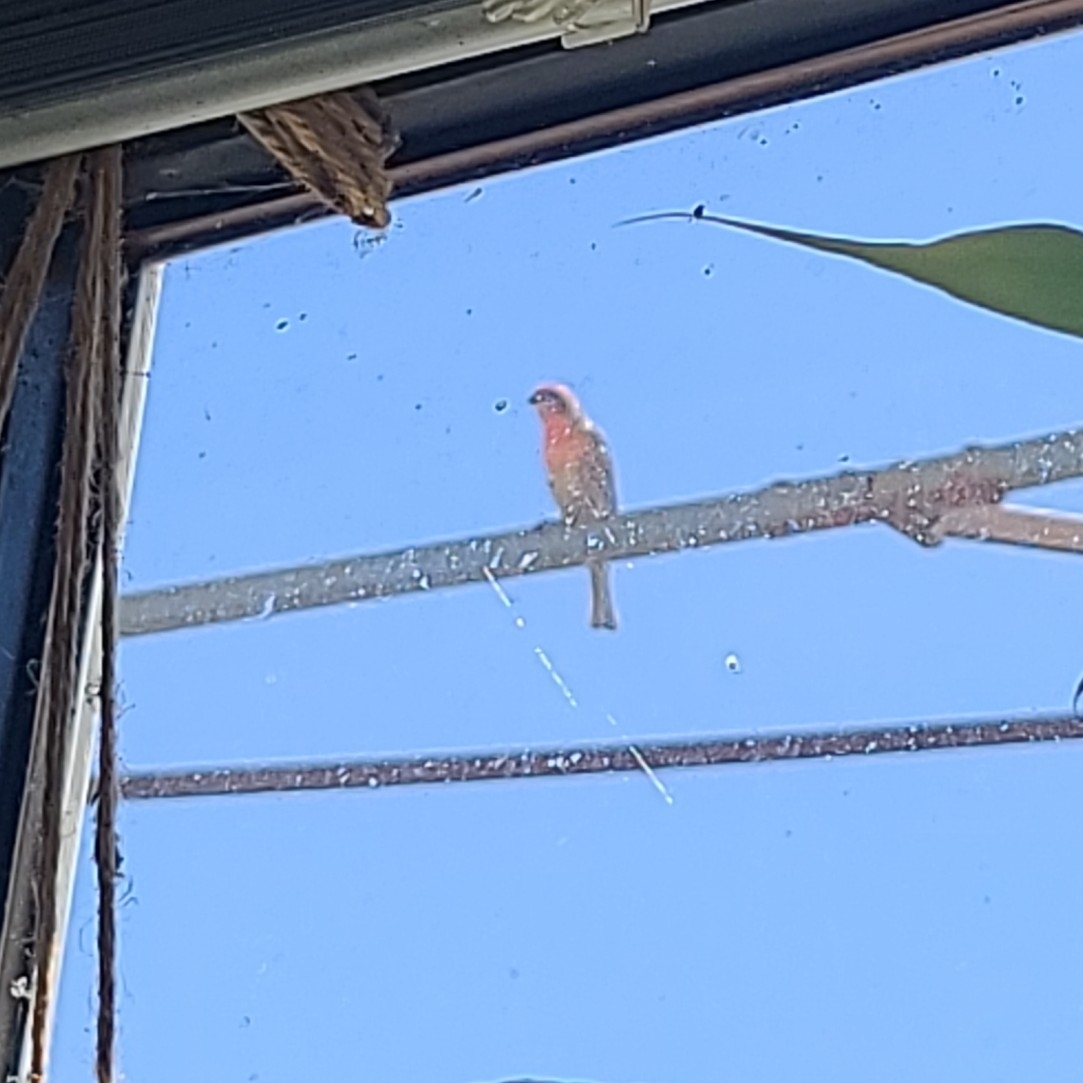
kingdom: Animalia
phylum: Chordata
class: Aves
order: Passeriformes
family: Fringillidae
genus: Haemorhous
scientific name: Haemorhous mexicanus
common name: House finch
